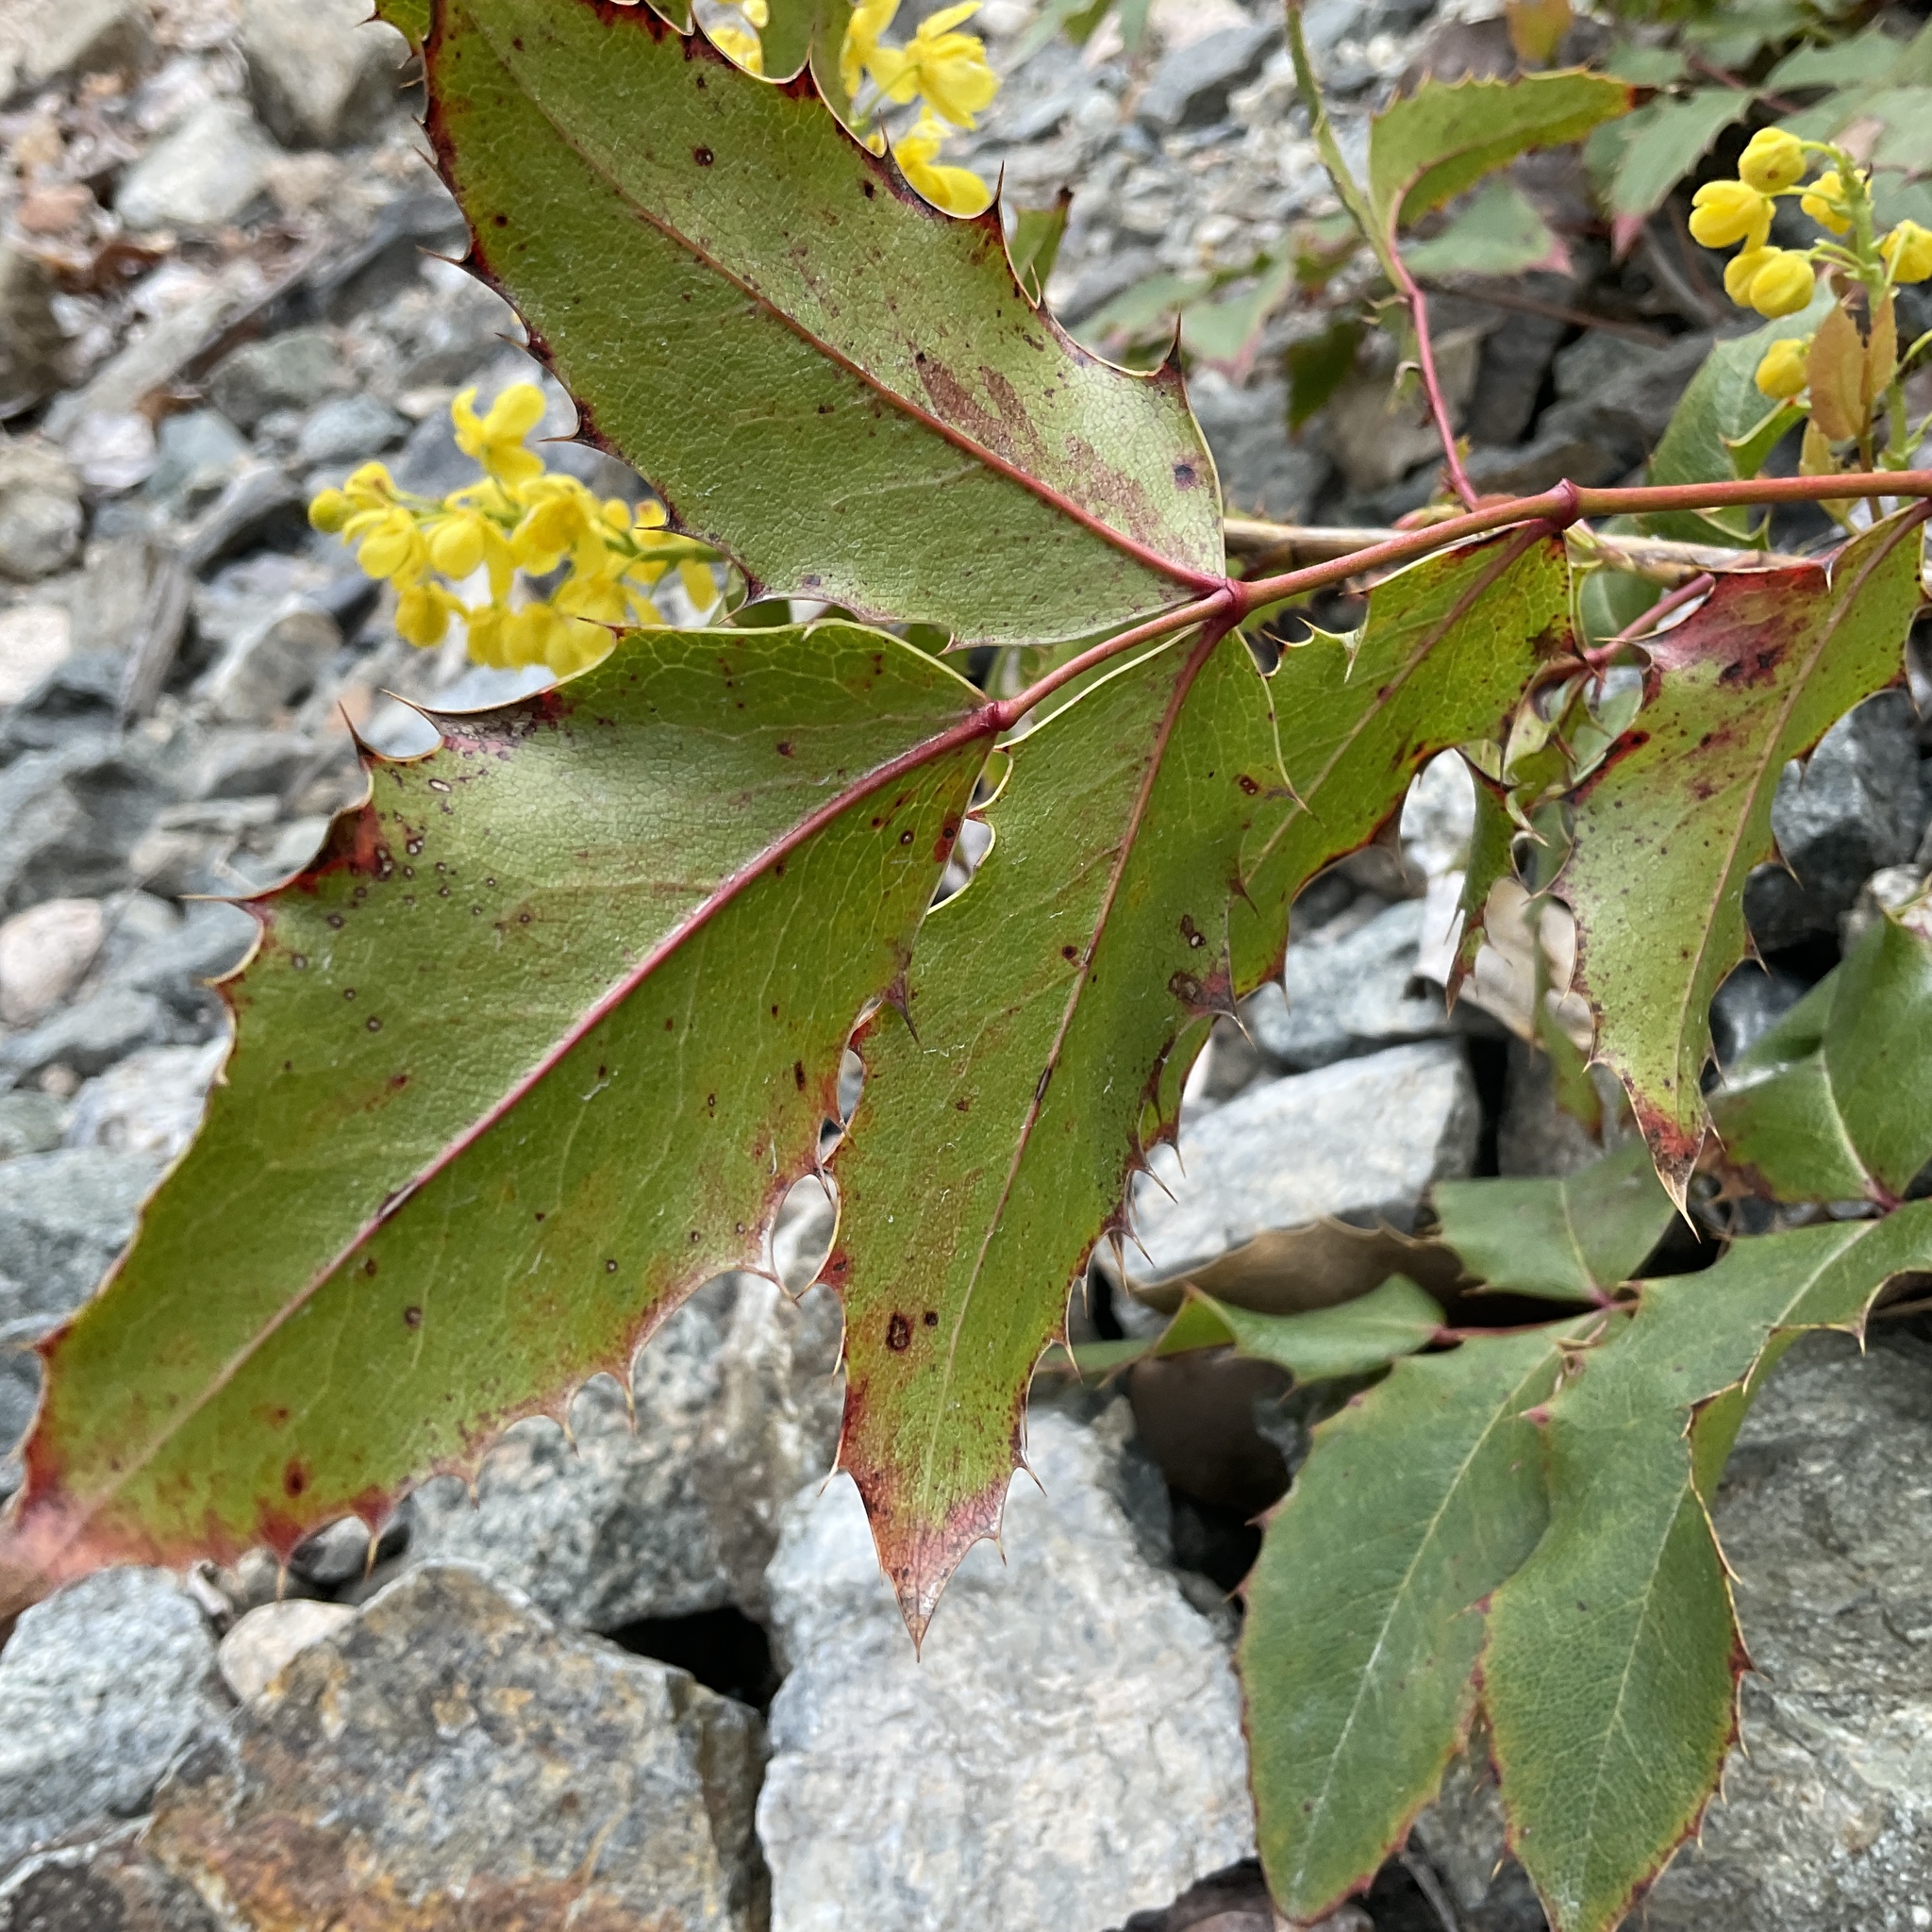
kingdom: Plantae
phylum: Tracheophyta
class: Magnoliopsida
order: Ranunculales
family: Berberidaceae
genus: Mahonia
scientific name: Mahonia aquifolium
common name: Oregon-grape
